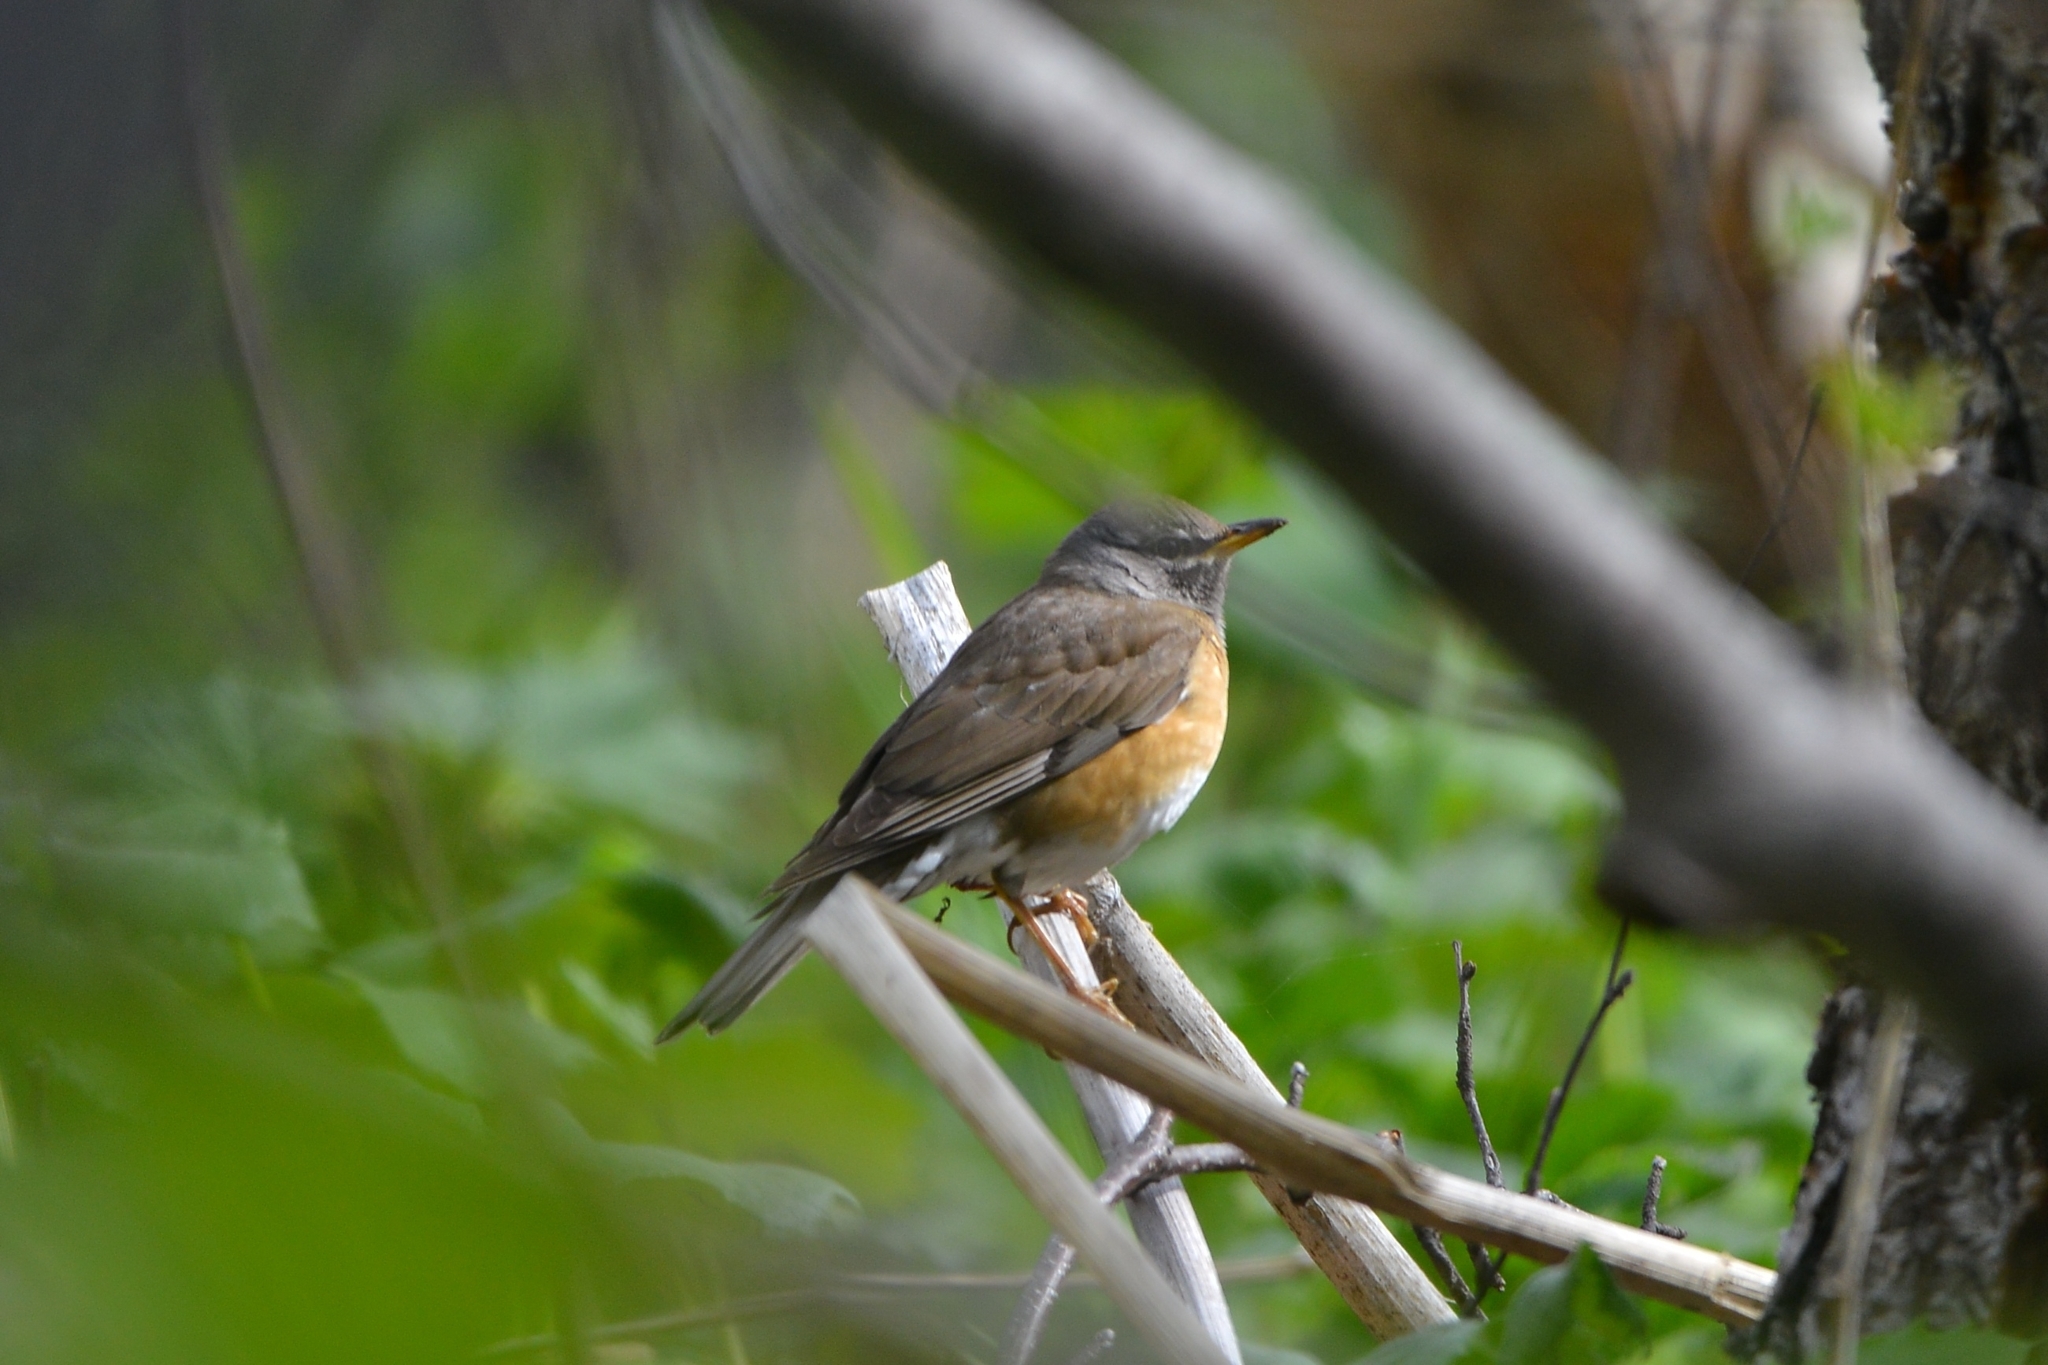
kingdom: Animalia
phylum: Chordata
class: Aves
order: Passeriformes
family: Turdidae
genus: Turdus
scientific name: Turdus obscurus
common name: Eyebrowed thrush
